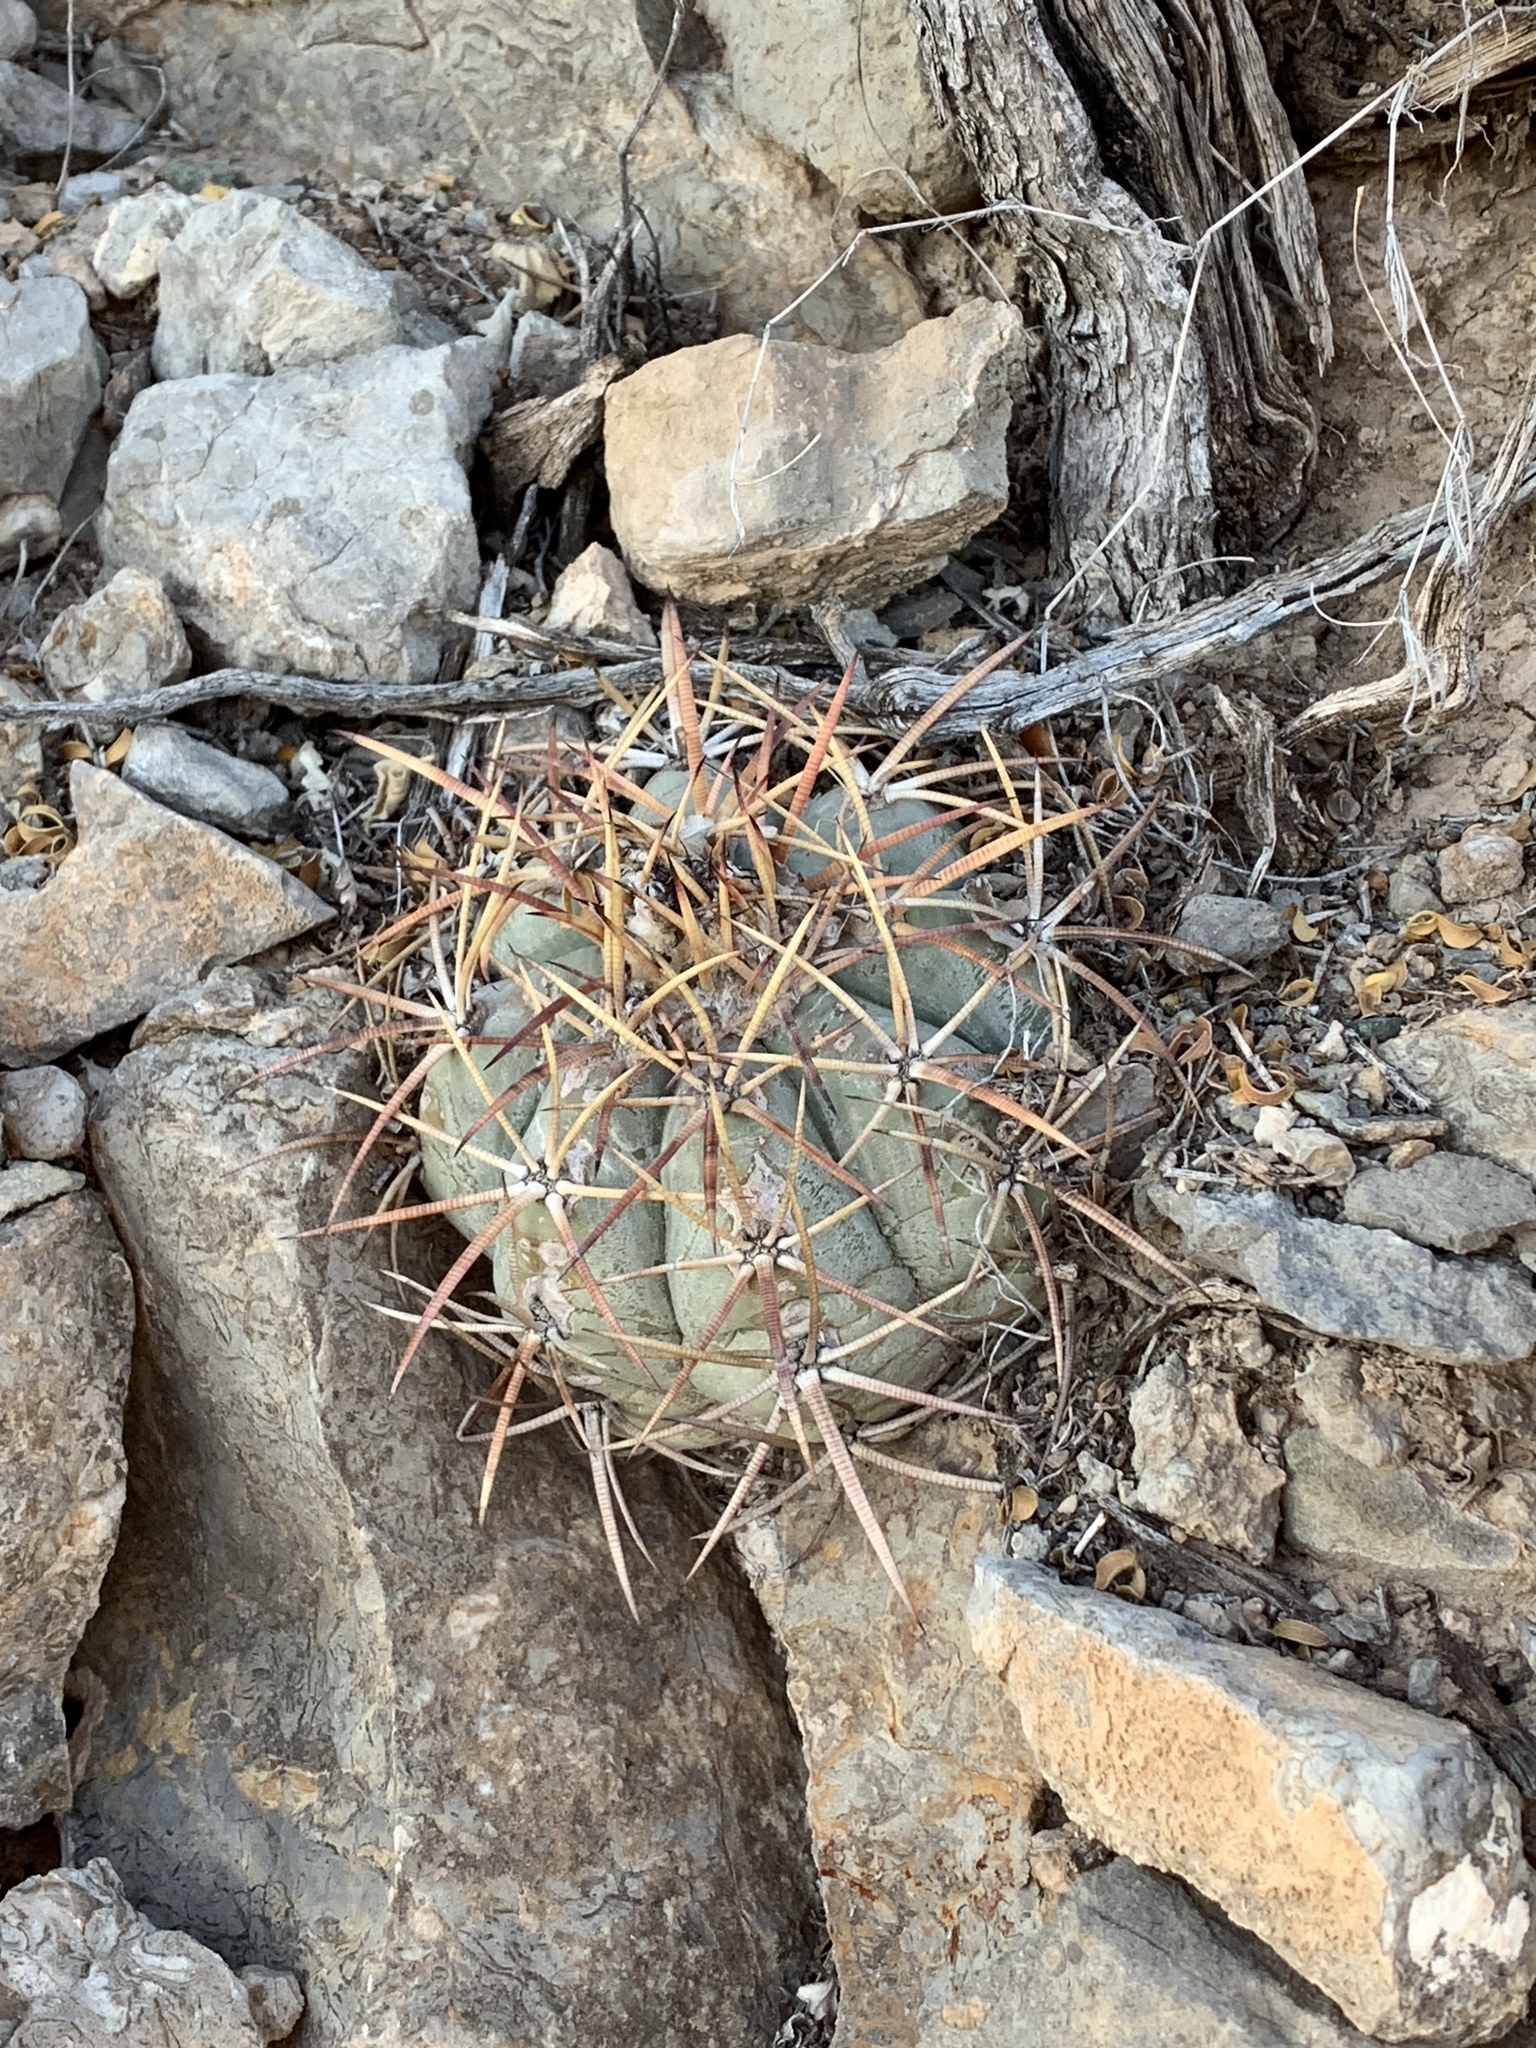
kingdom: Plantae
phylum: Tracheophyta
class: Magnoliopsida
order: Caryophyllales
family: Cactaceae
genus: Echinocactus
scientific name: Echinocactus horizonthalonius
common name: Devilshead
